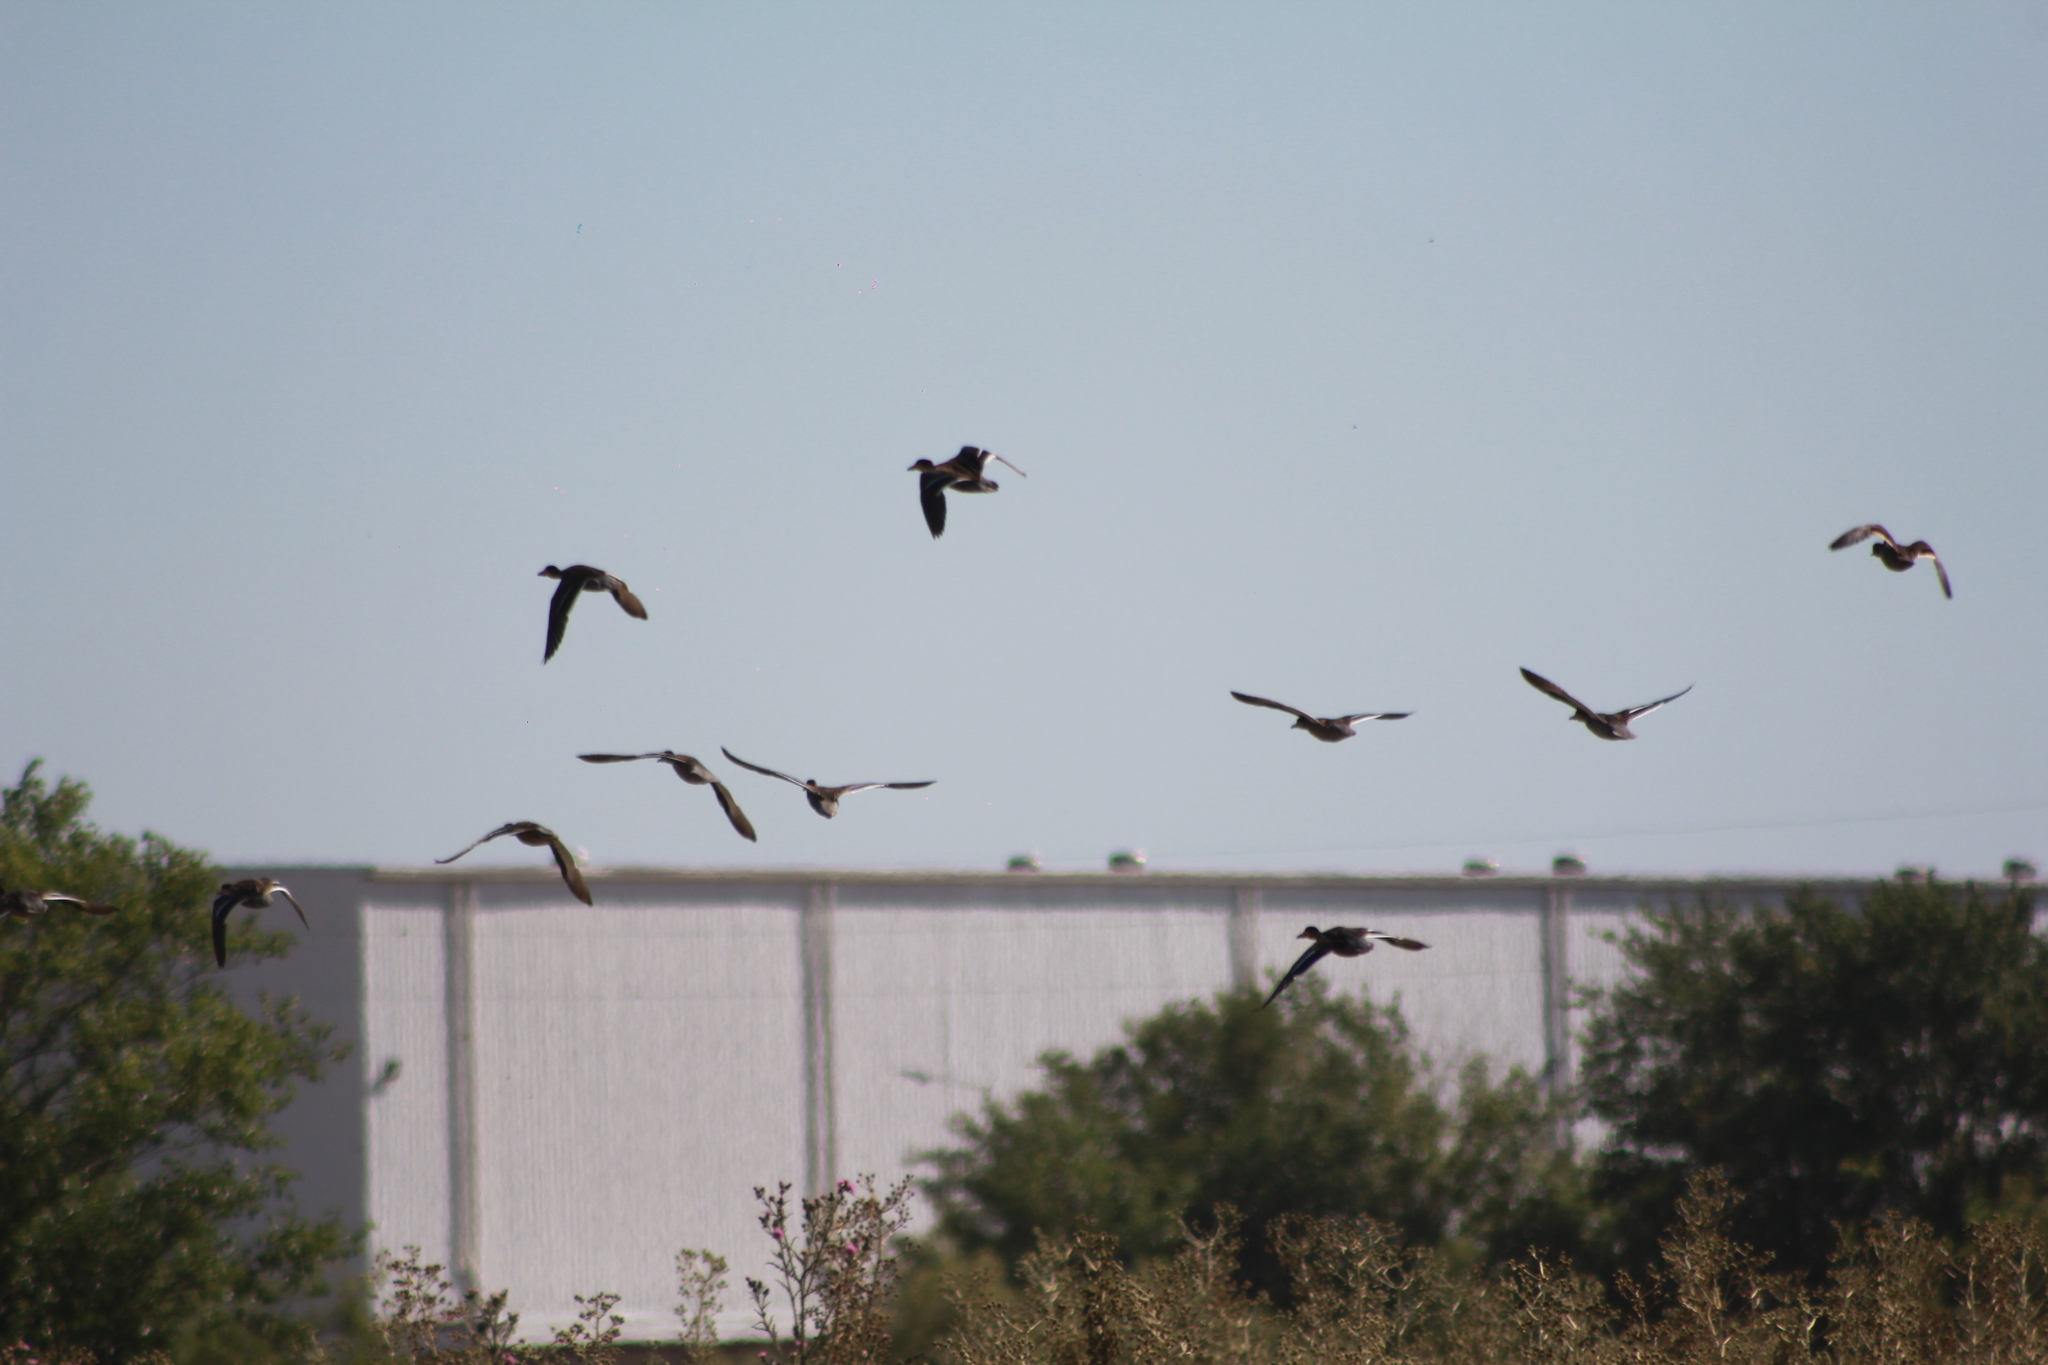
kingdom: Animalia
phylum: Chordata
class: Aves
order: Anseriformes
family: Anatidae
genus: Spatula
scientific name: Spatula versicolor
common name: Silver teal
